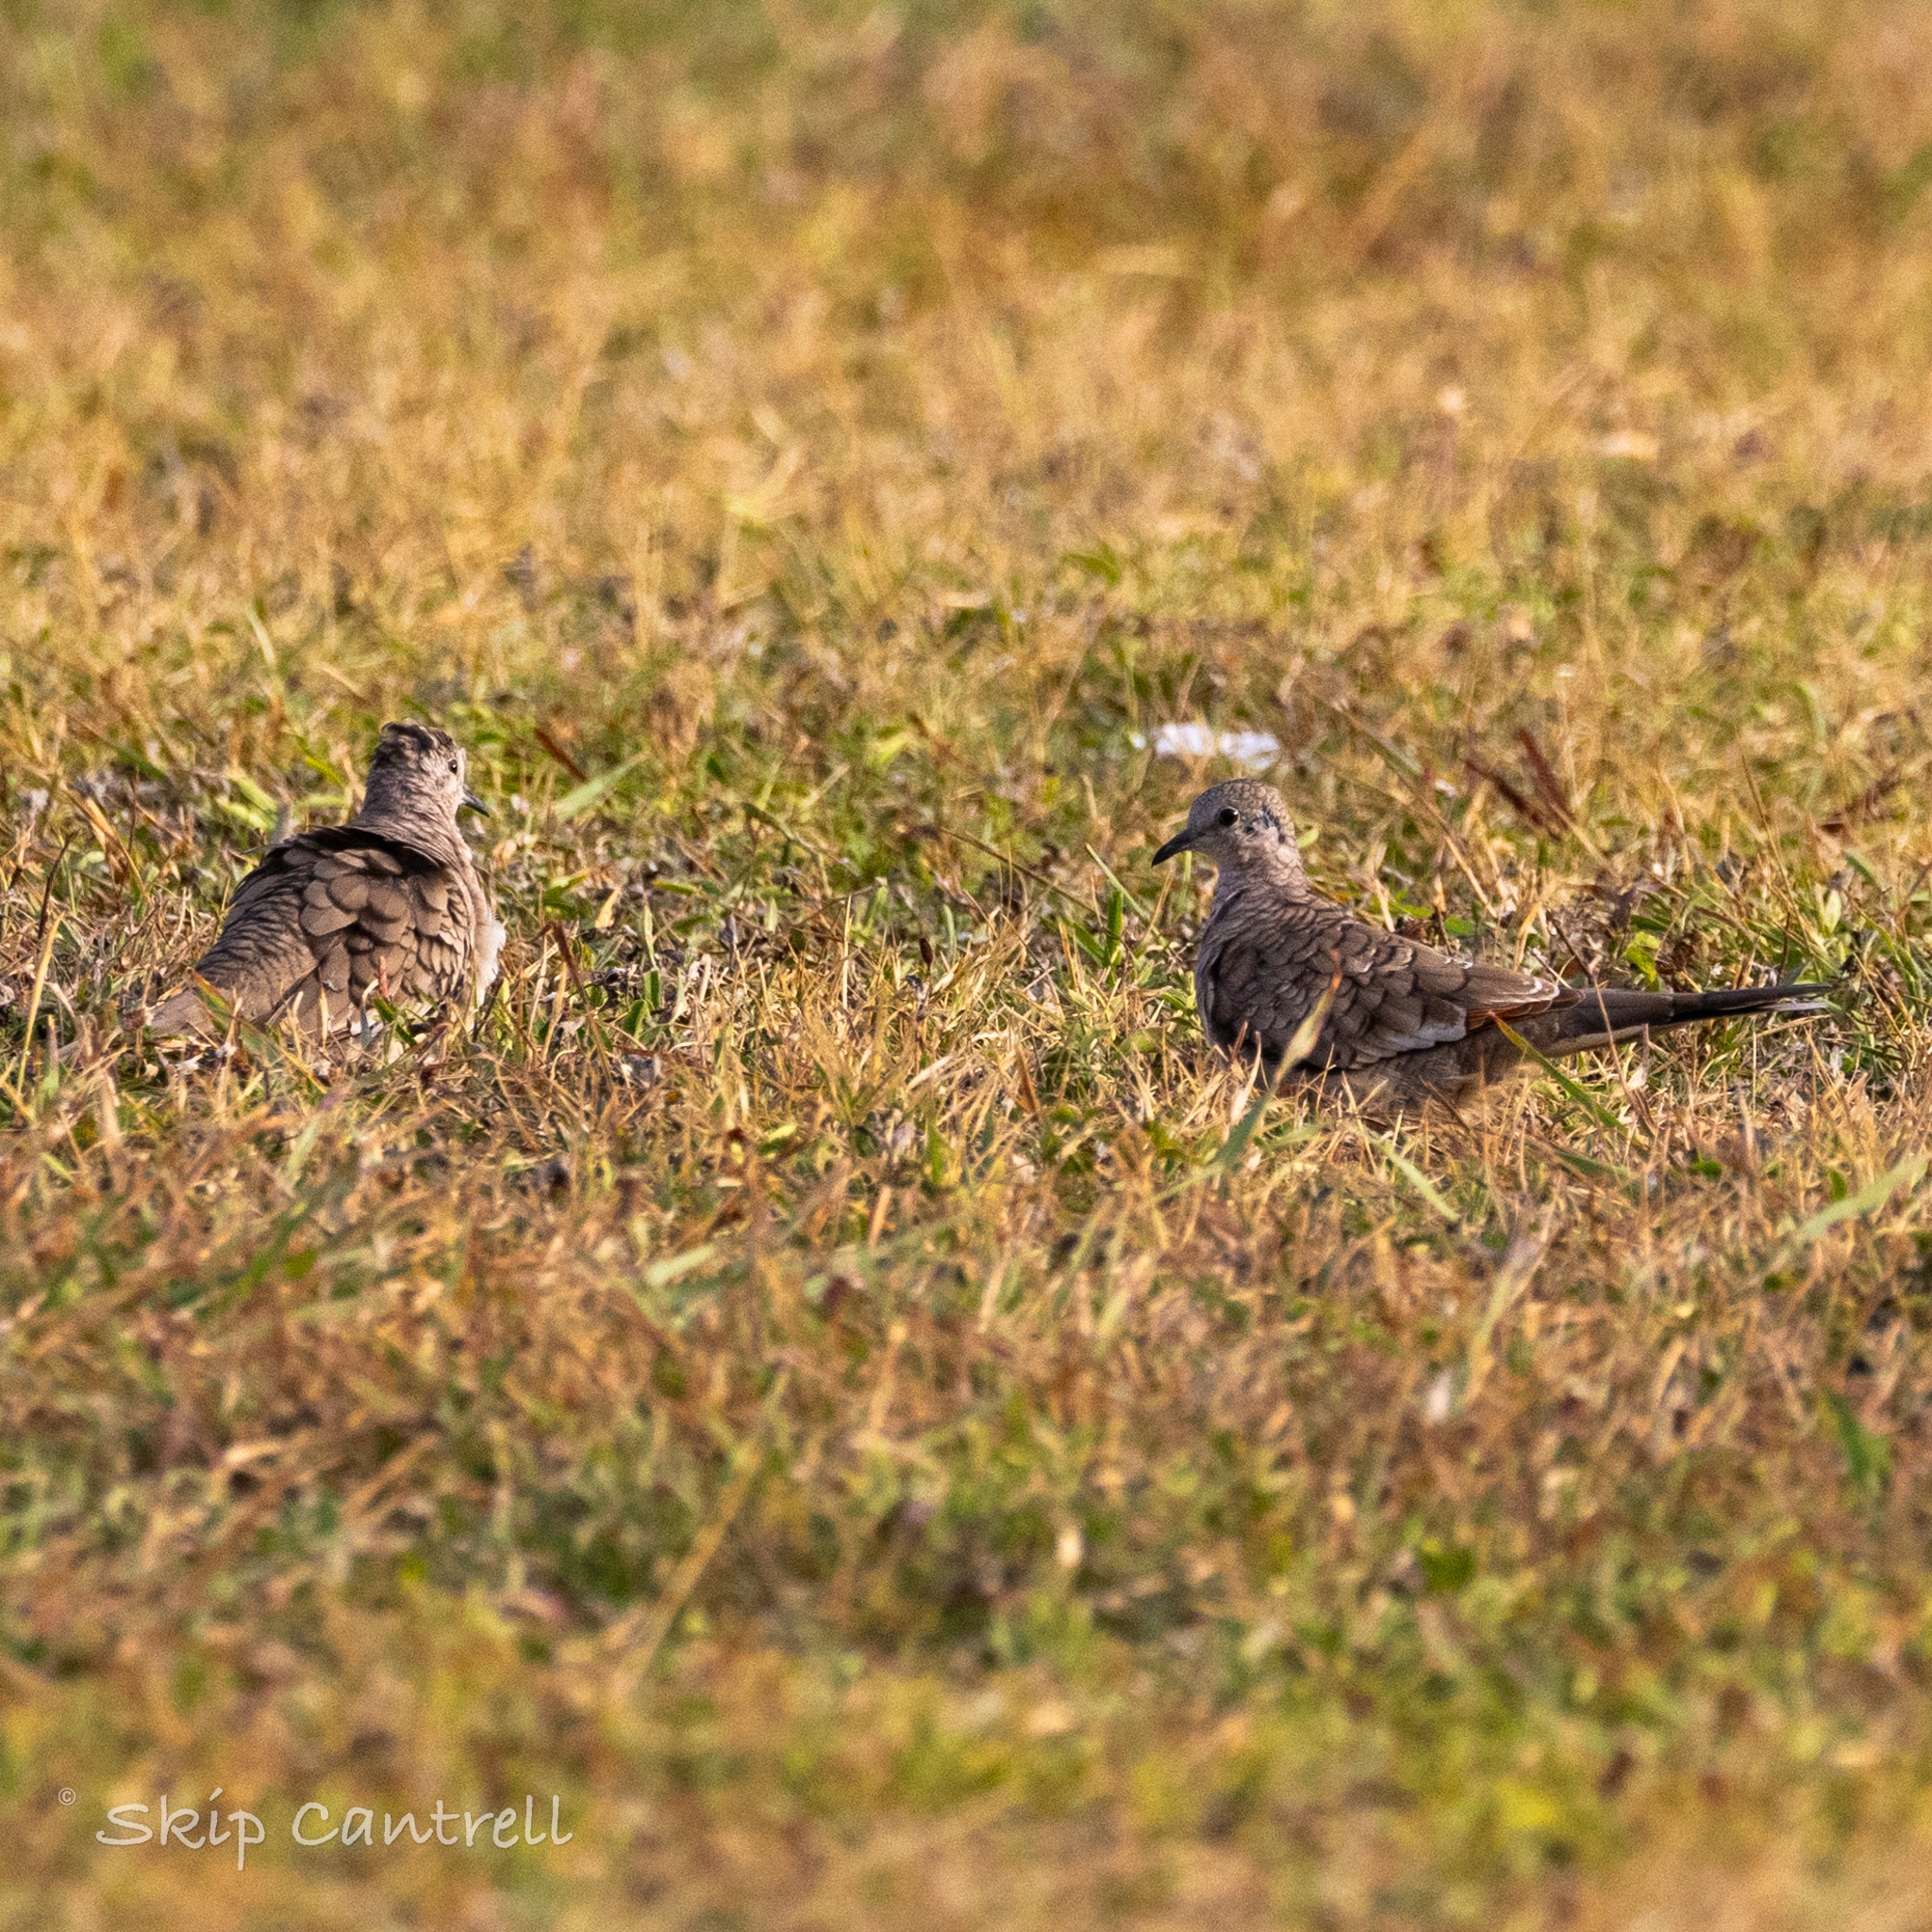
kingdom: Animalia
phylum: Chordata
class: Aves
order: Columbiformes
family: Columbidae
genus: Columbina
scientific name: Columbina inca
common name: Inca dove
